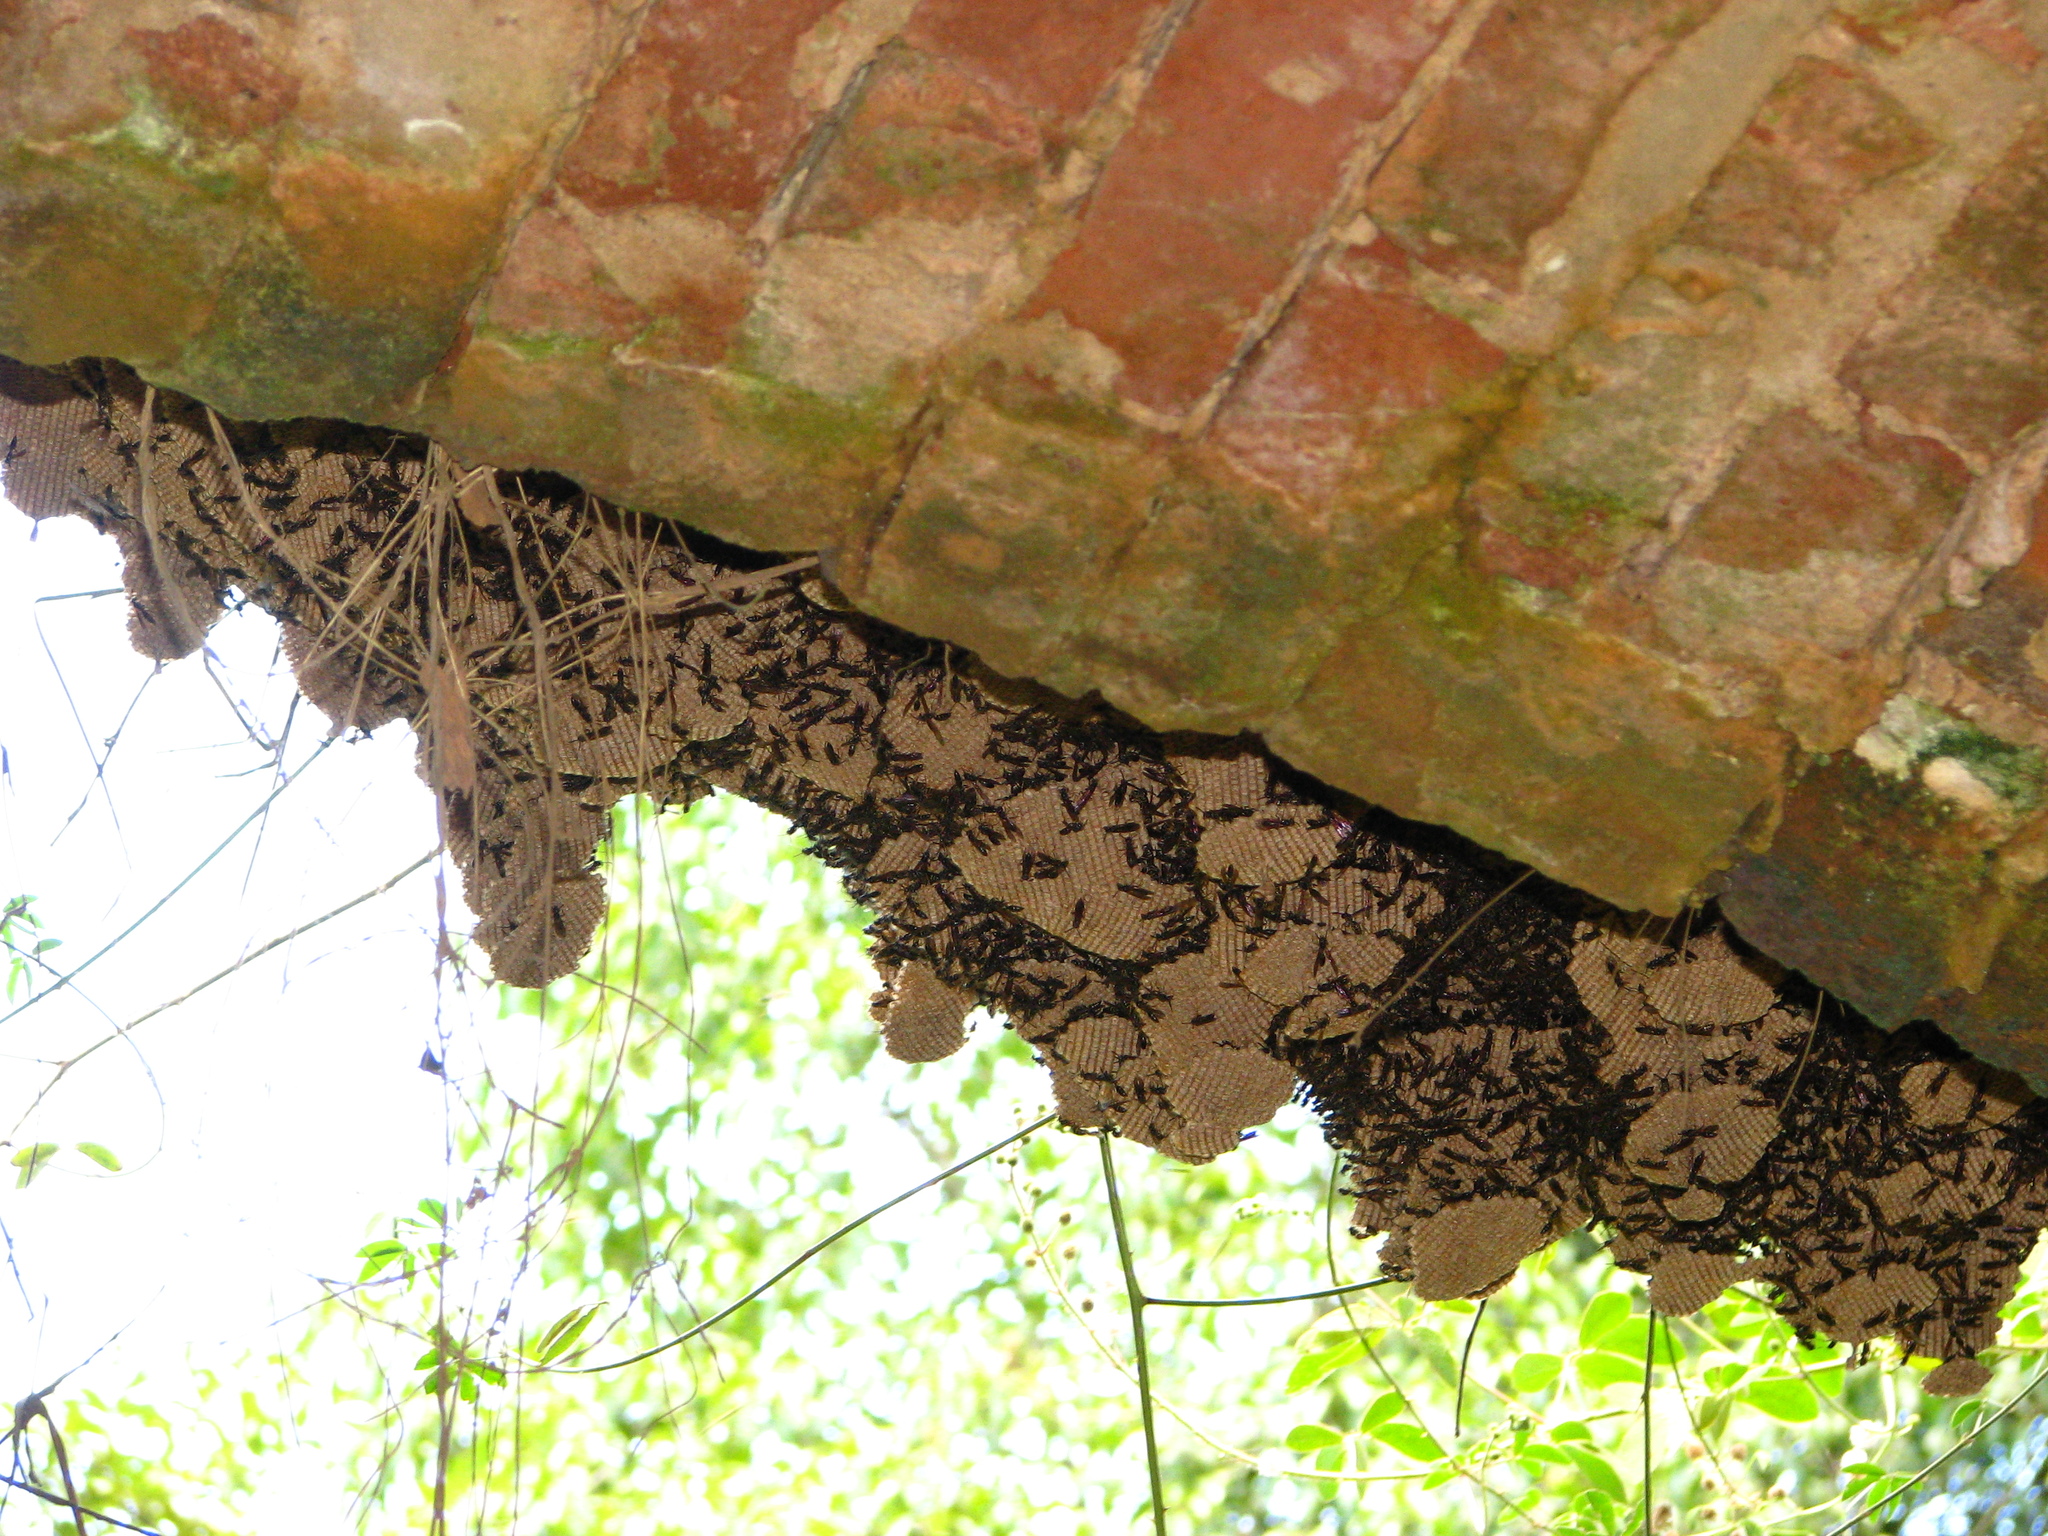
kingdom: Animalia
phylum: Arthropoda
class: Insecta
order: Hymenoptera
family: Vespidae
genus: Agelaia
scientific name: Agelaia vicina
